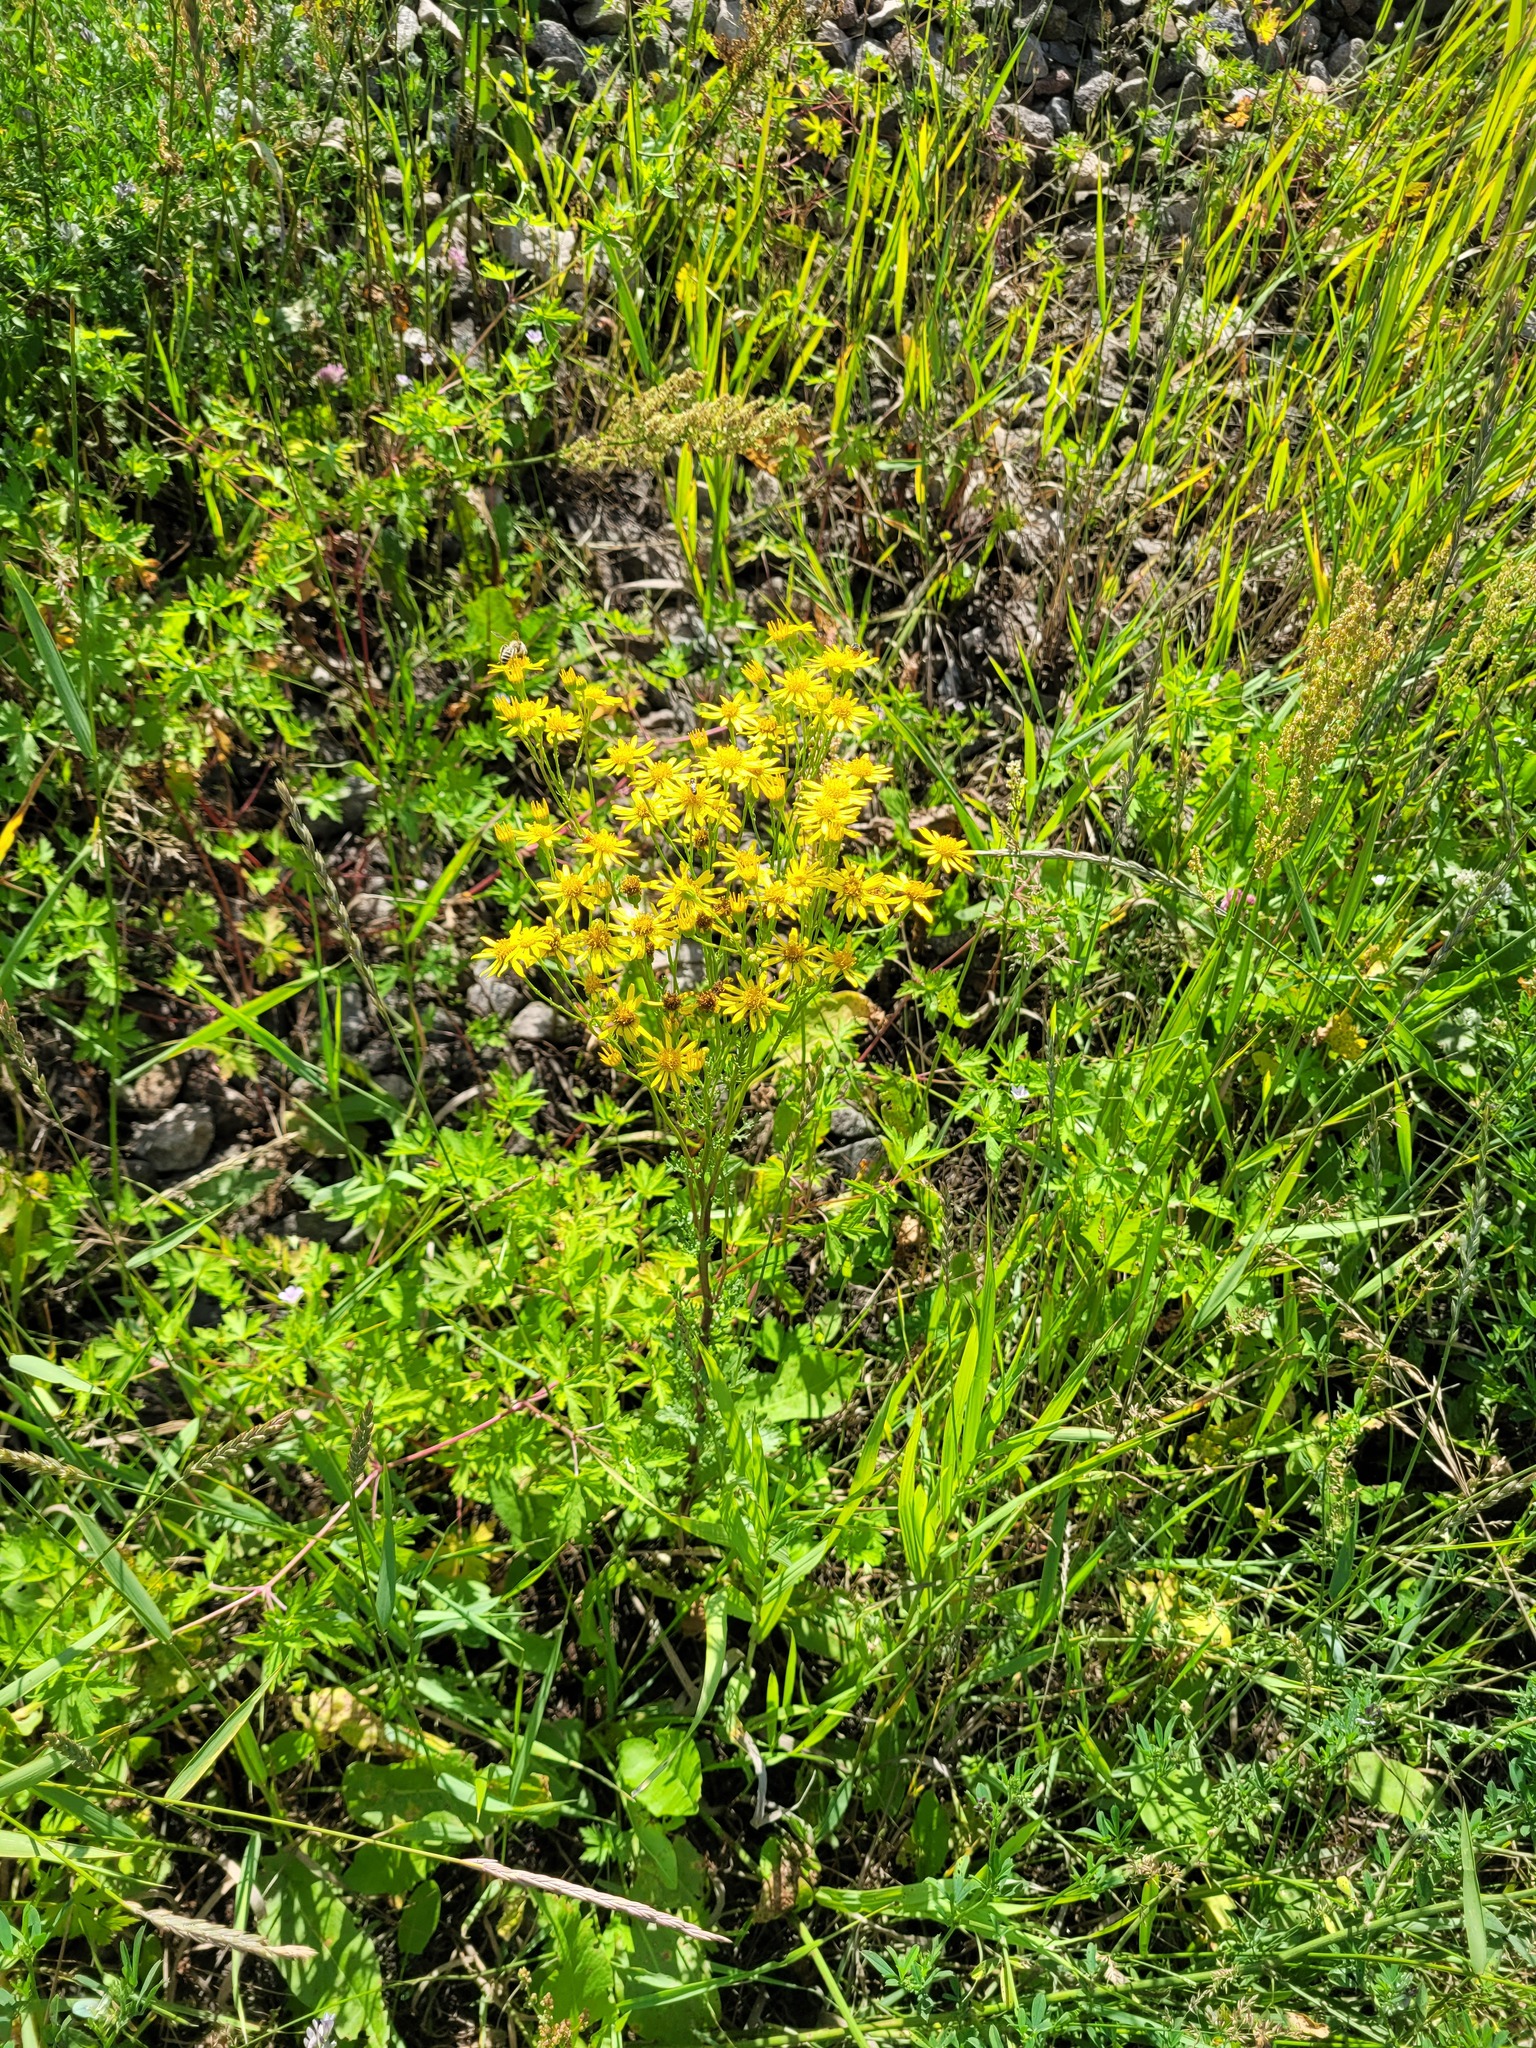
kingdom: Plantae
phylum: Tracheophyta
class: Magnoliopsida
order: Asterales
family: Asteraceae
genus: Jacobaea
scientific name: Jacobaea vulgaris
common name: Stinking willie
